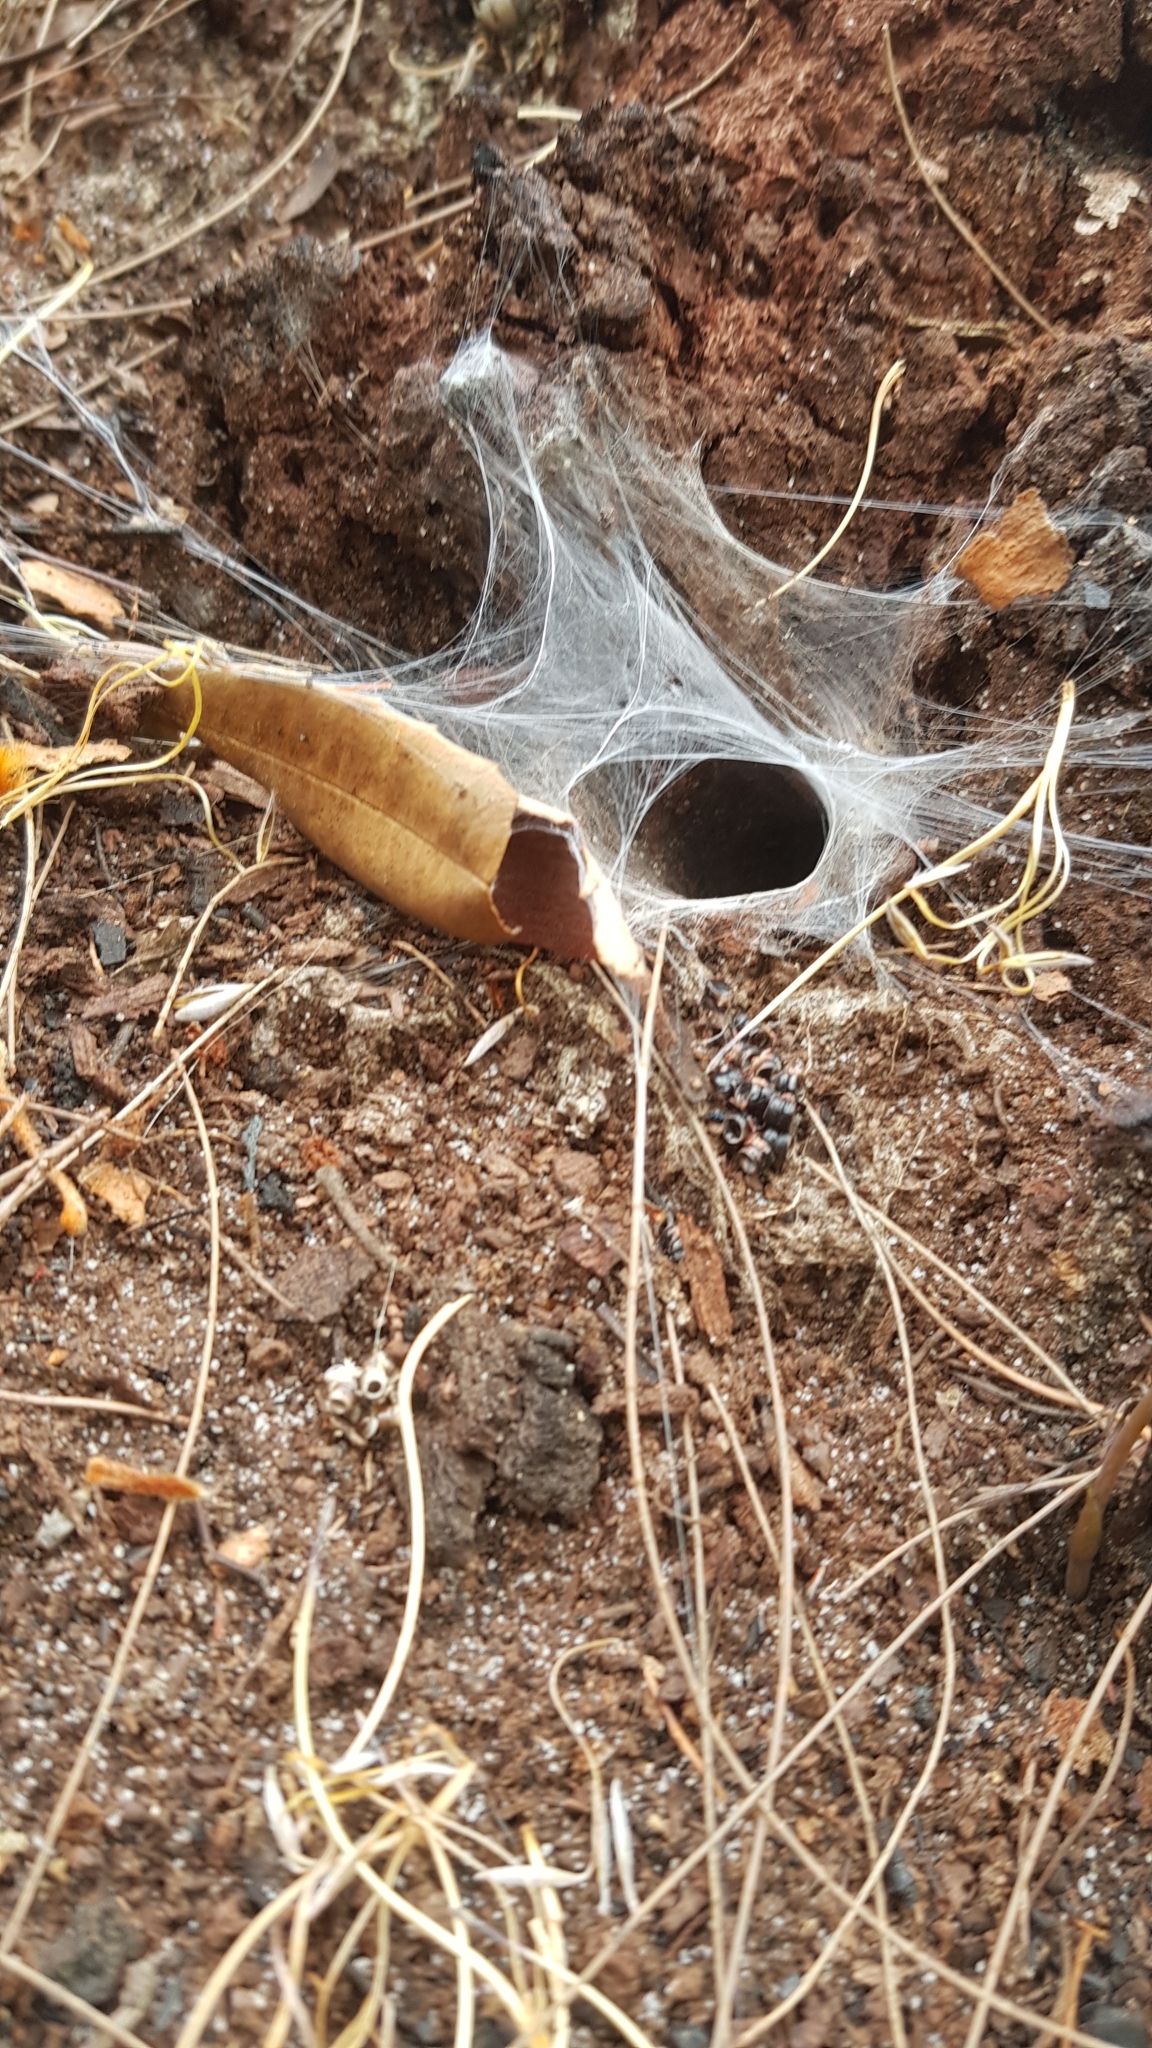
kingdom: Animalia
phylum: Arthropoda
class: Arachnida
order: Araneae
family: Atracidae
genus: Atrax
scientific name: Atrax robustus
